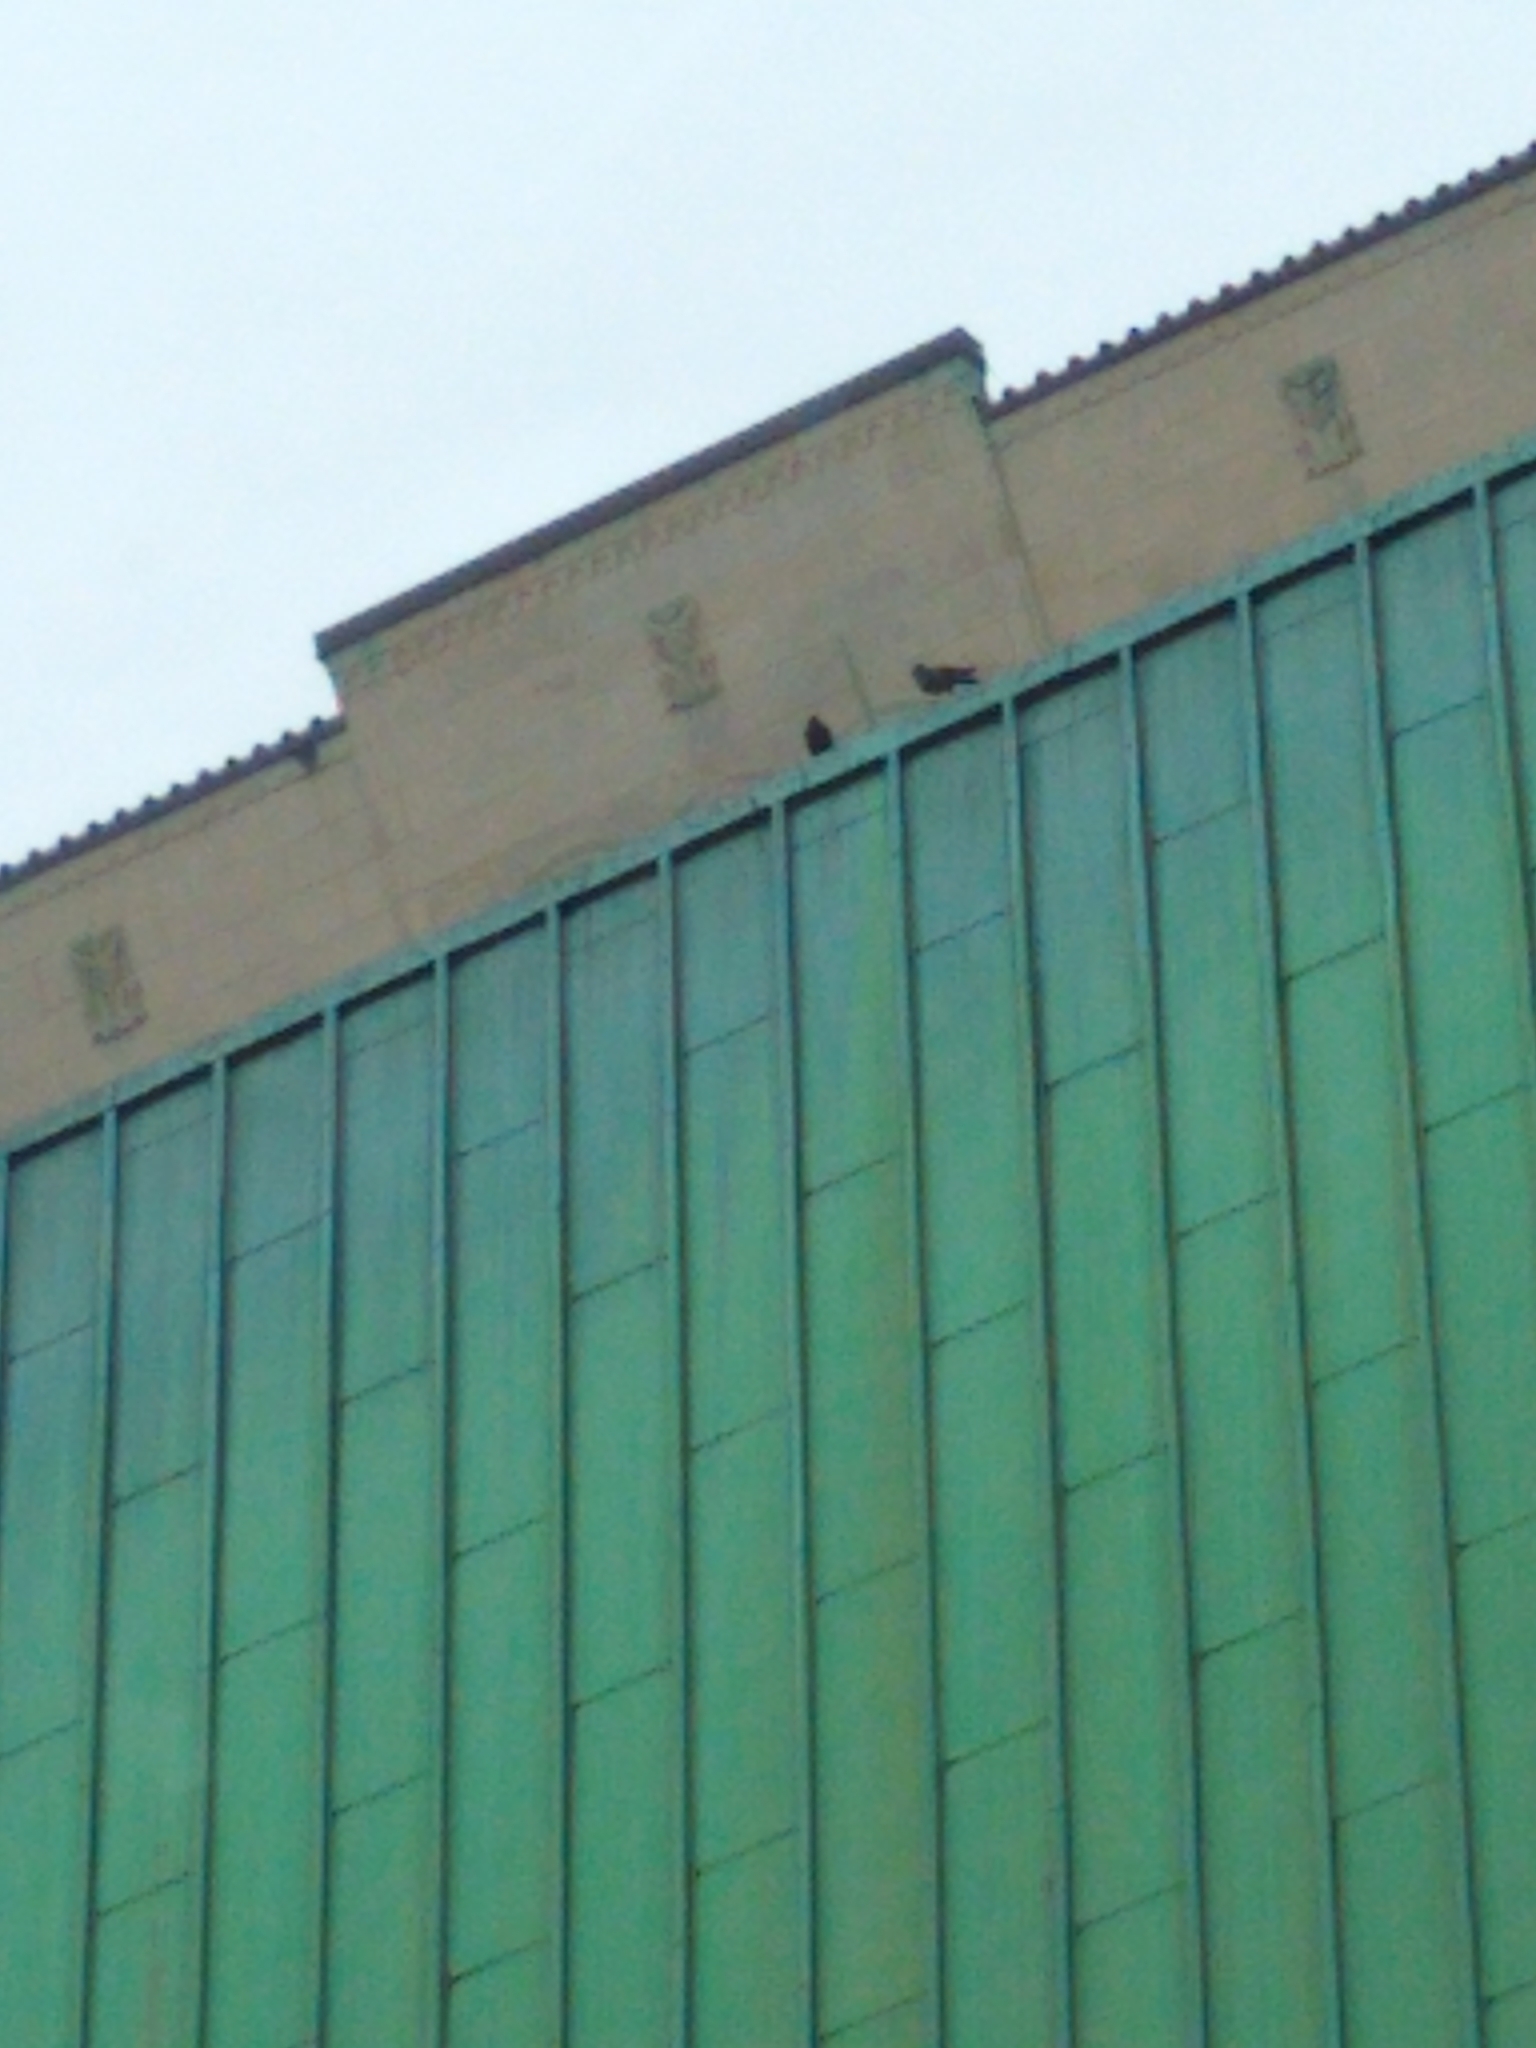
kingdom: Animalia
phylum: Chordata
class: Aves
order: Columbiformes
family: Columbidae
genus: Columba
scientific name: Columba livia
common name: Rock pigeon
